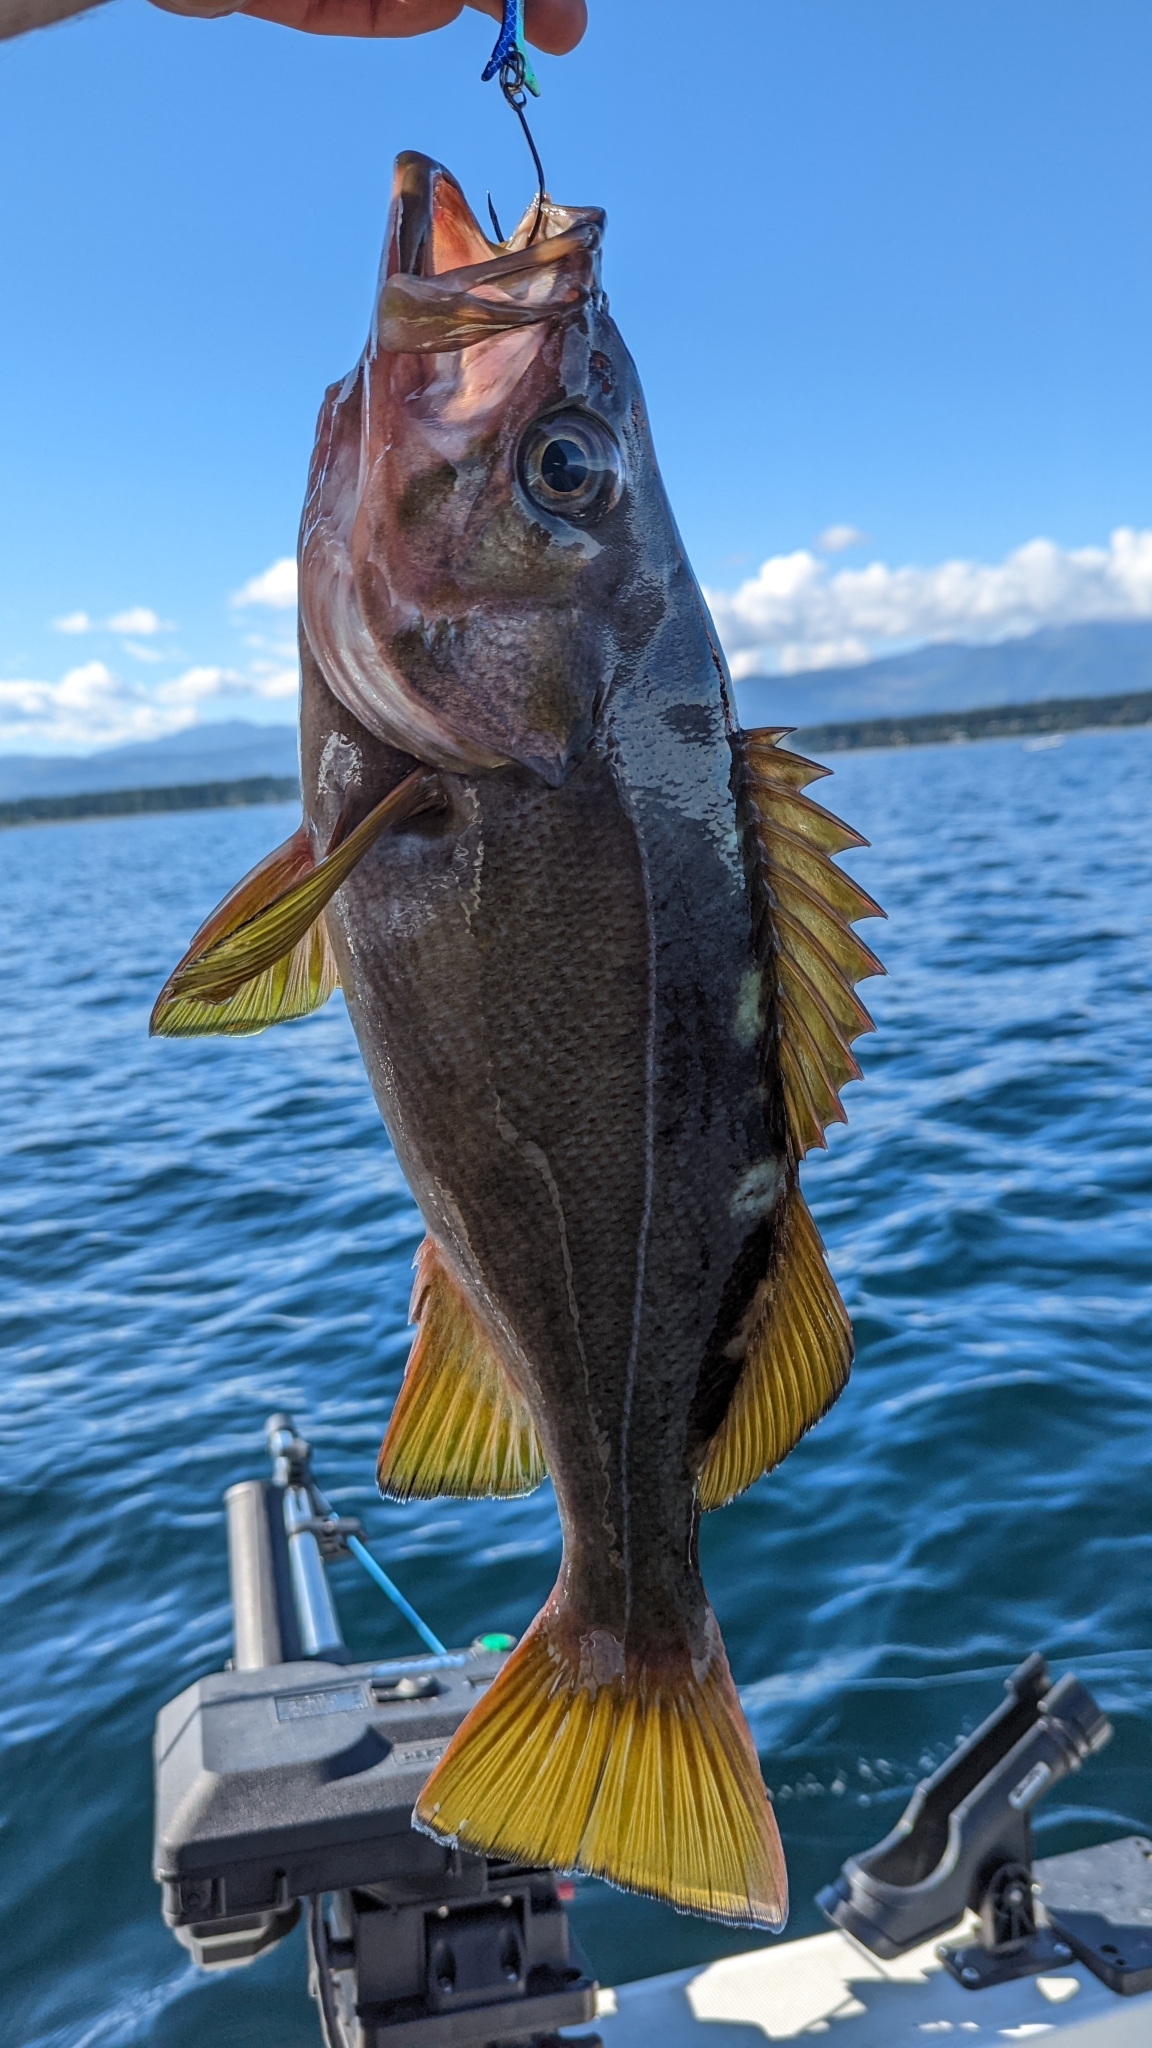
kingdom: Animalia
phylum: Chordata
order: Scorpaeniformes
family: Sebastidae
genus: Sebastes
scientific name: Sebastes flavidus
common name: Yellowtail rockfish
